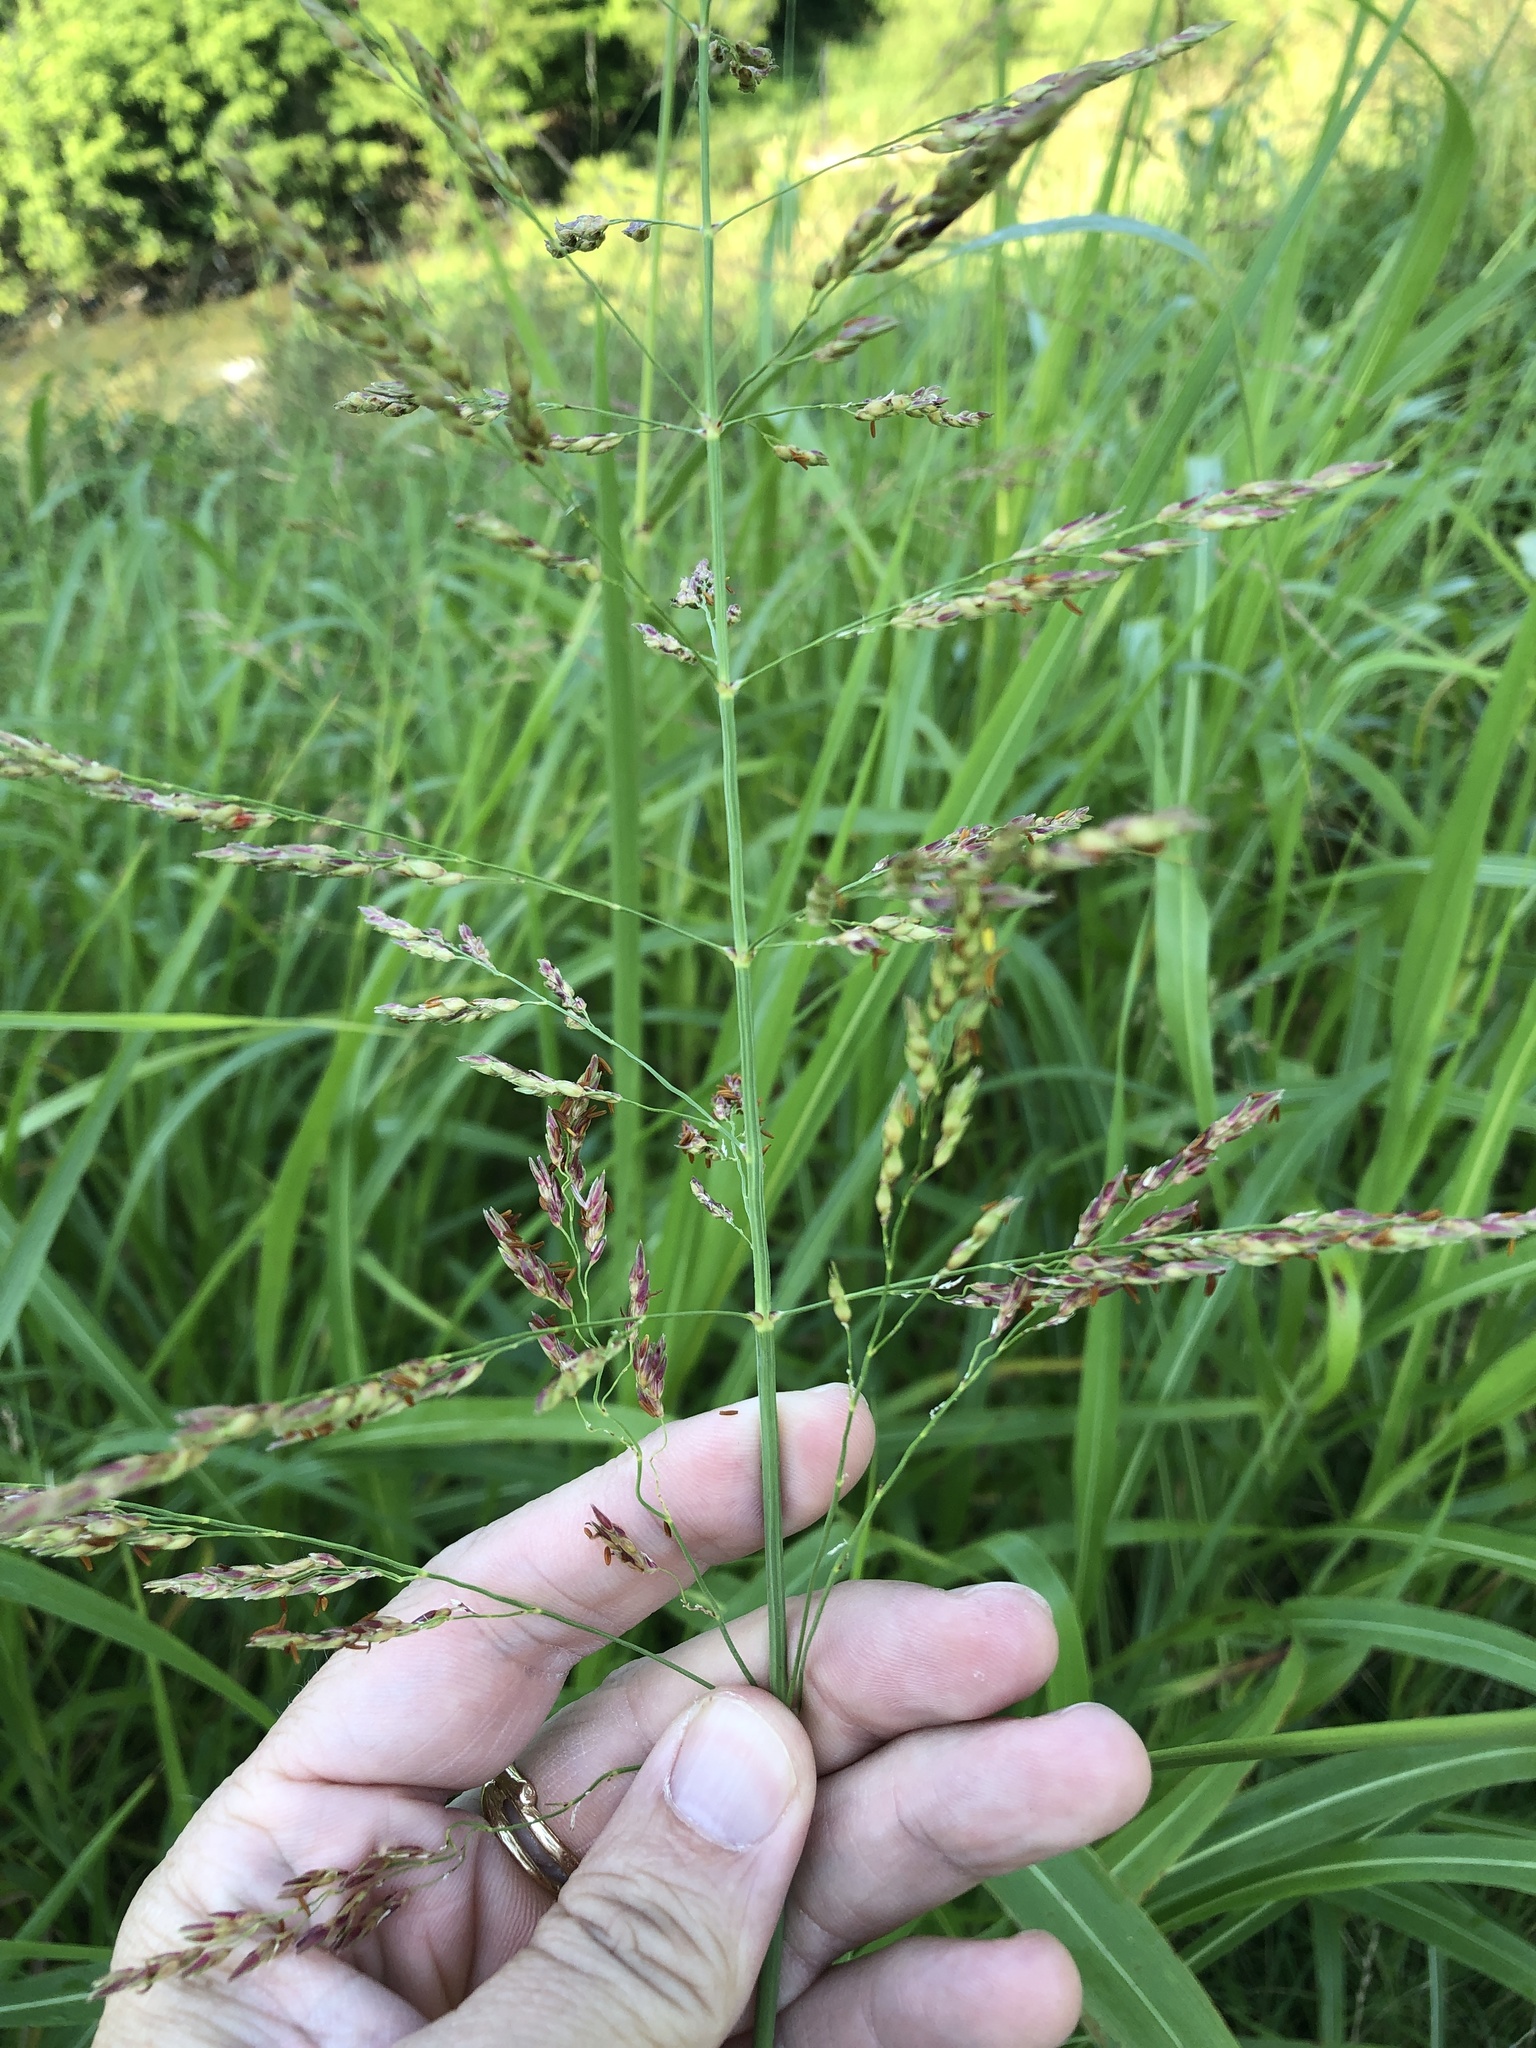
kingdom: Plantae
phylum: Tracheophyta
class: Liliopsida
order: Poales
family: Poaceae
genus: Sorghum
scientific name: Sorghum halepense
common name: Johnson-grass
